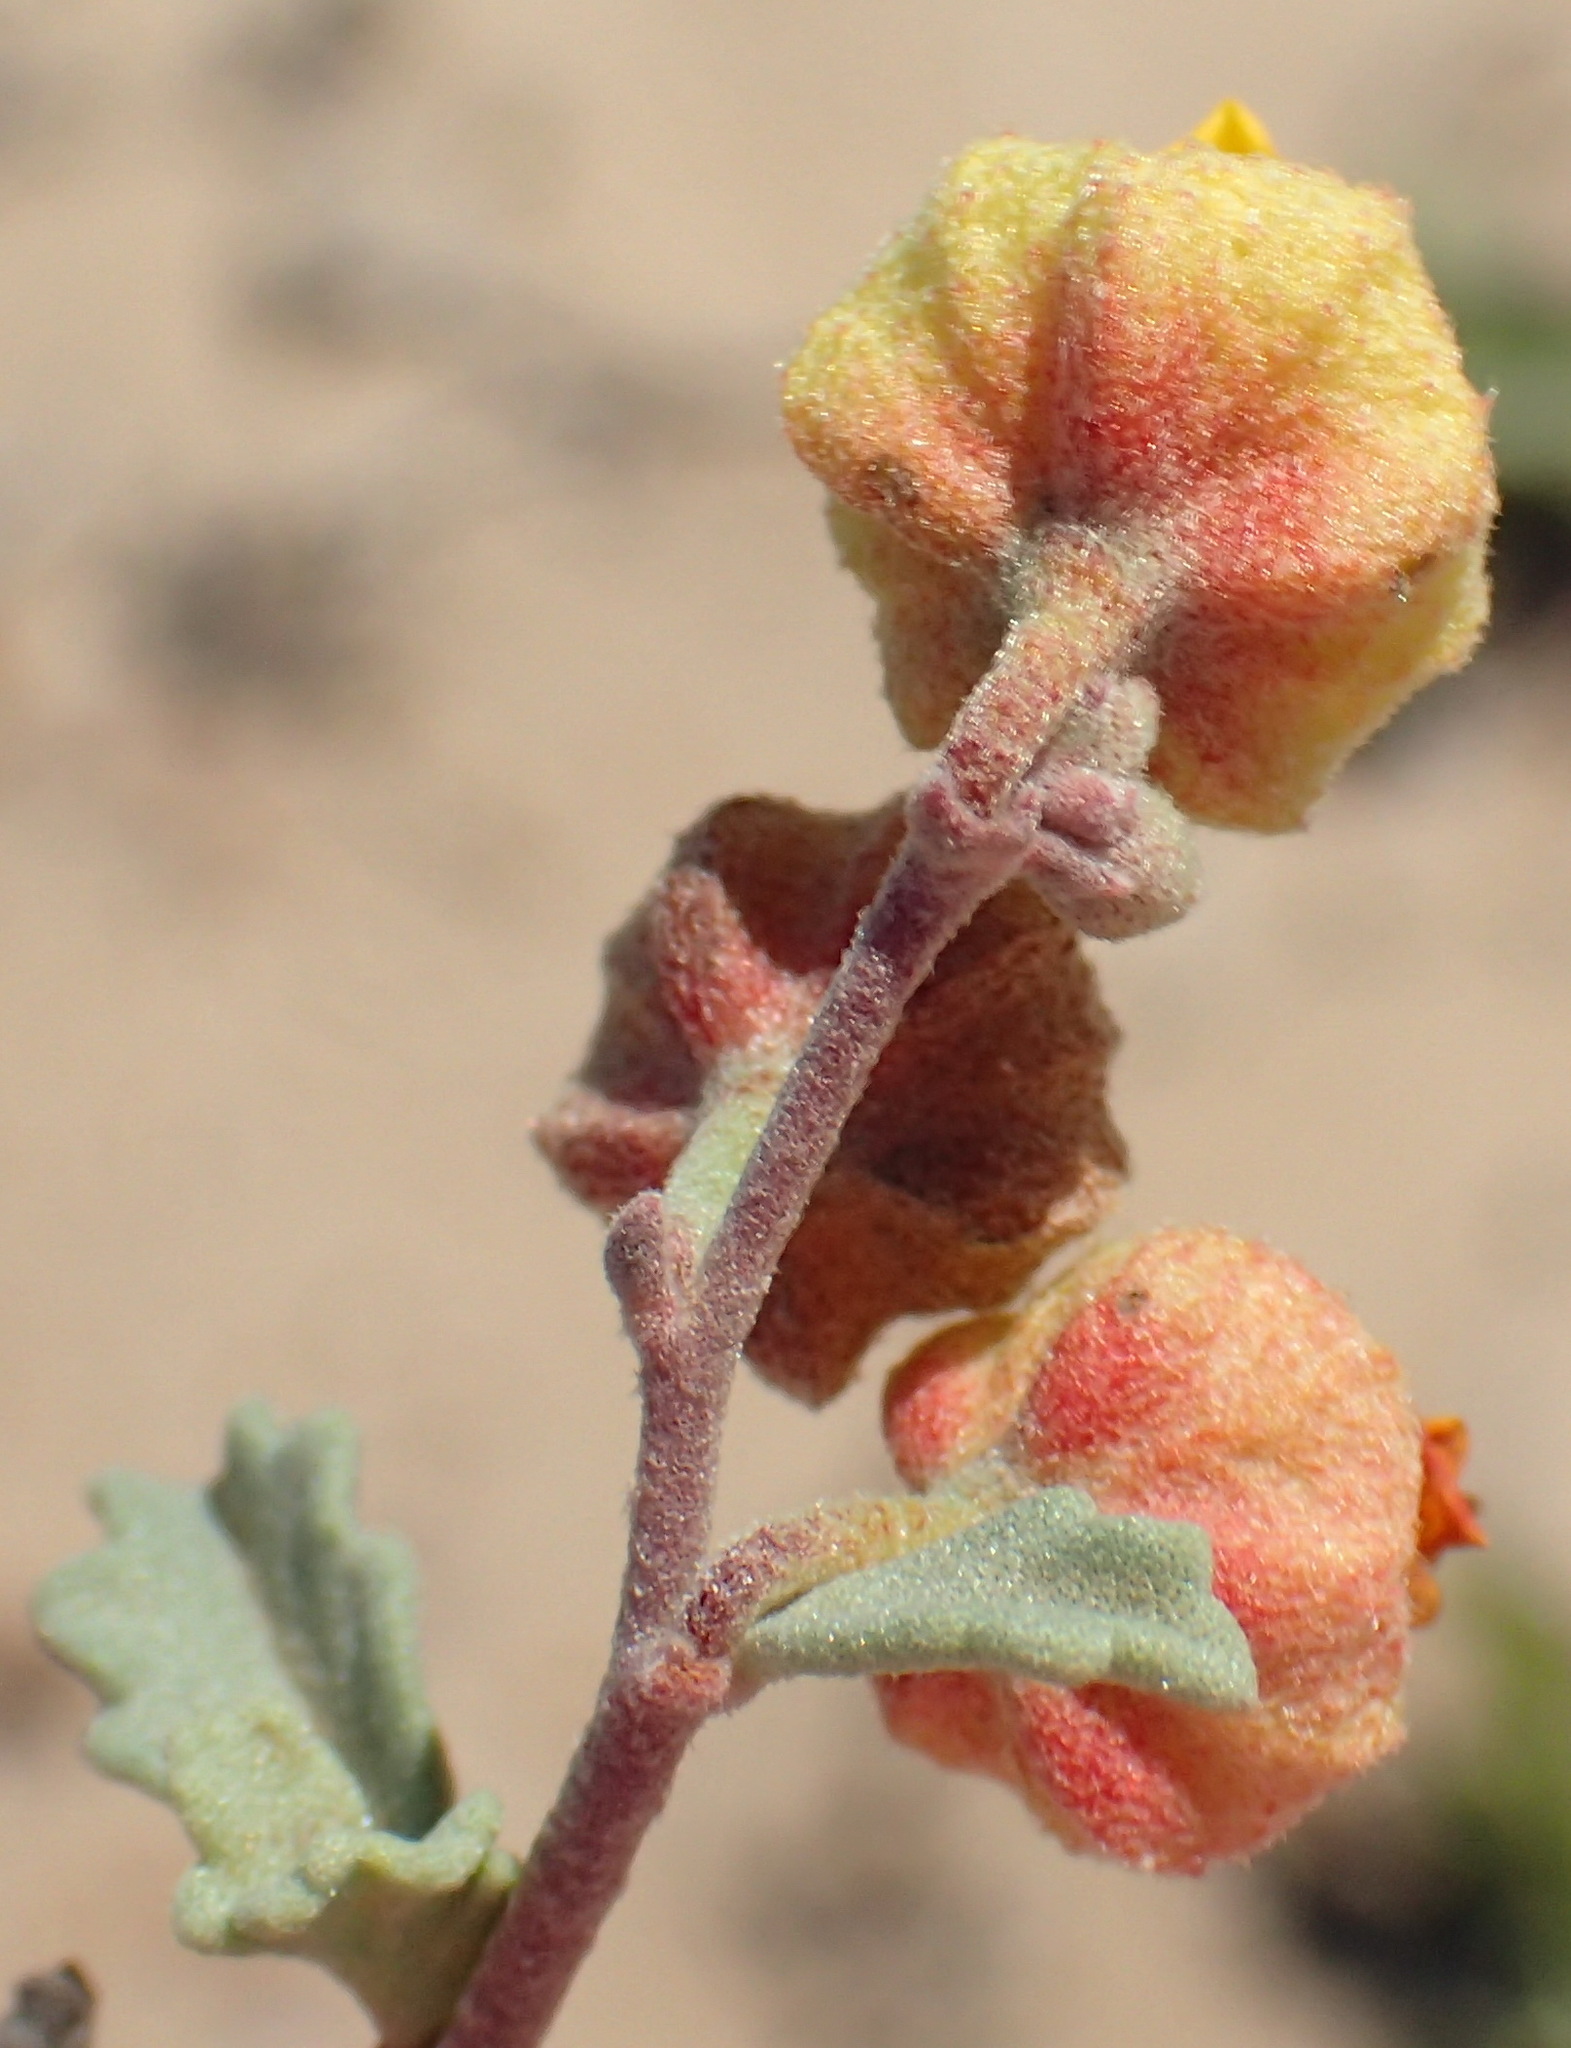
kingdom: Plantae
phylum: Tracheophyta
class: Magnoliopsida
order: Malvales
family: Malvaceae
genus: Hermannia
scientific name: Hermannia pfeilii
